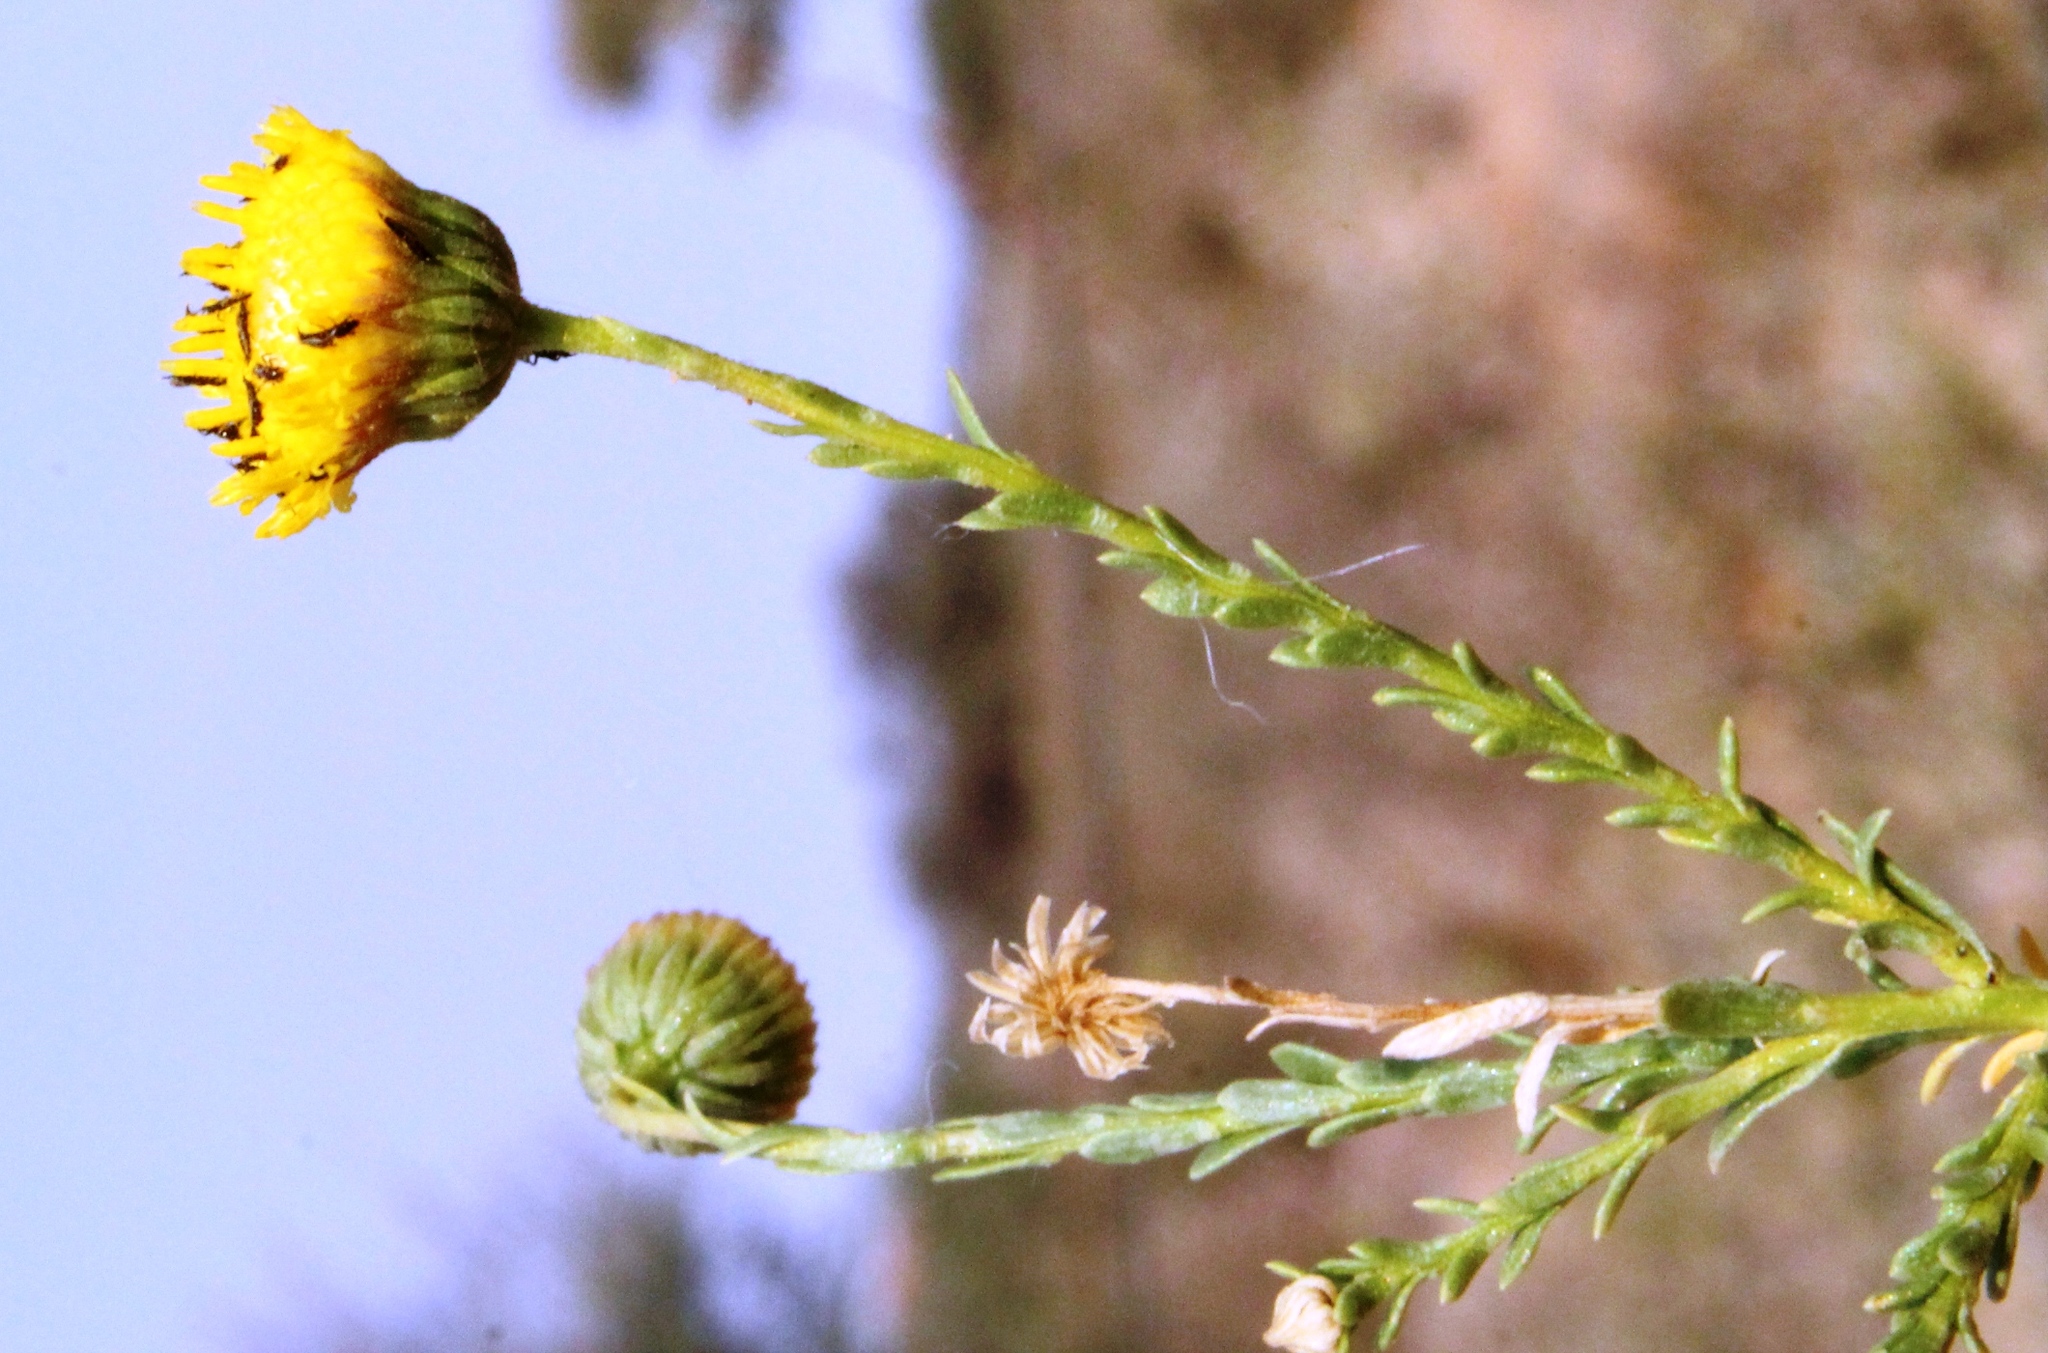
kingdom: Plantae
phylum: Tracheophyta
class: Magnoliopsida
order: Asterales
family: Asteraceae
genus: Chrysocoma
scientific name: Chrysocoma obtusata
